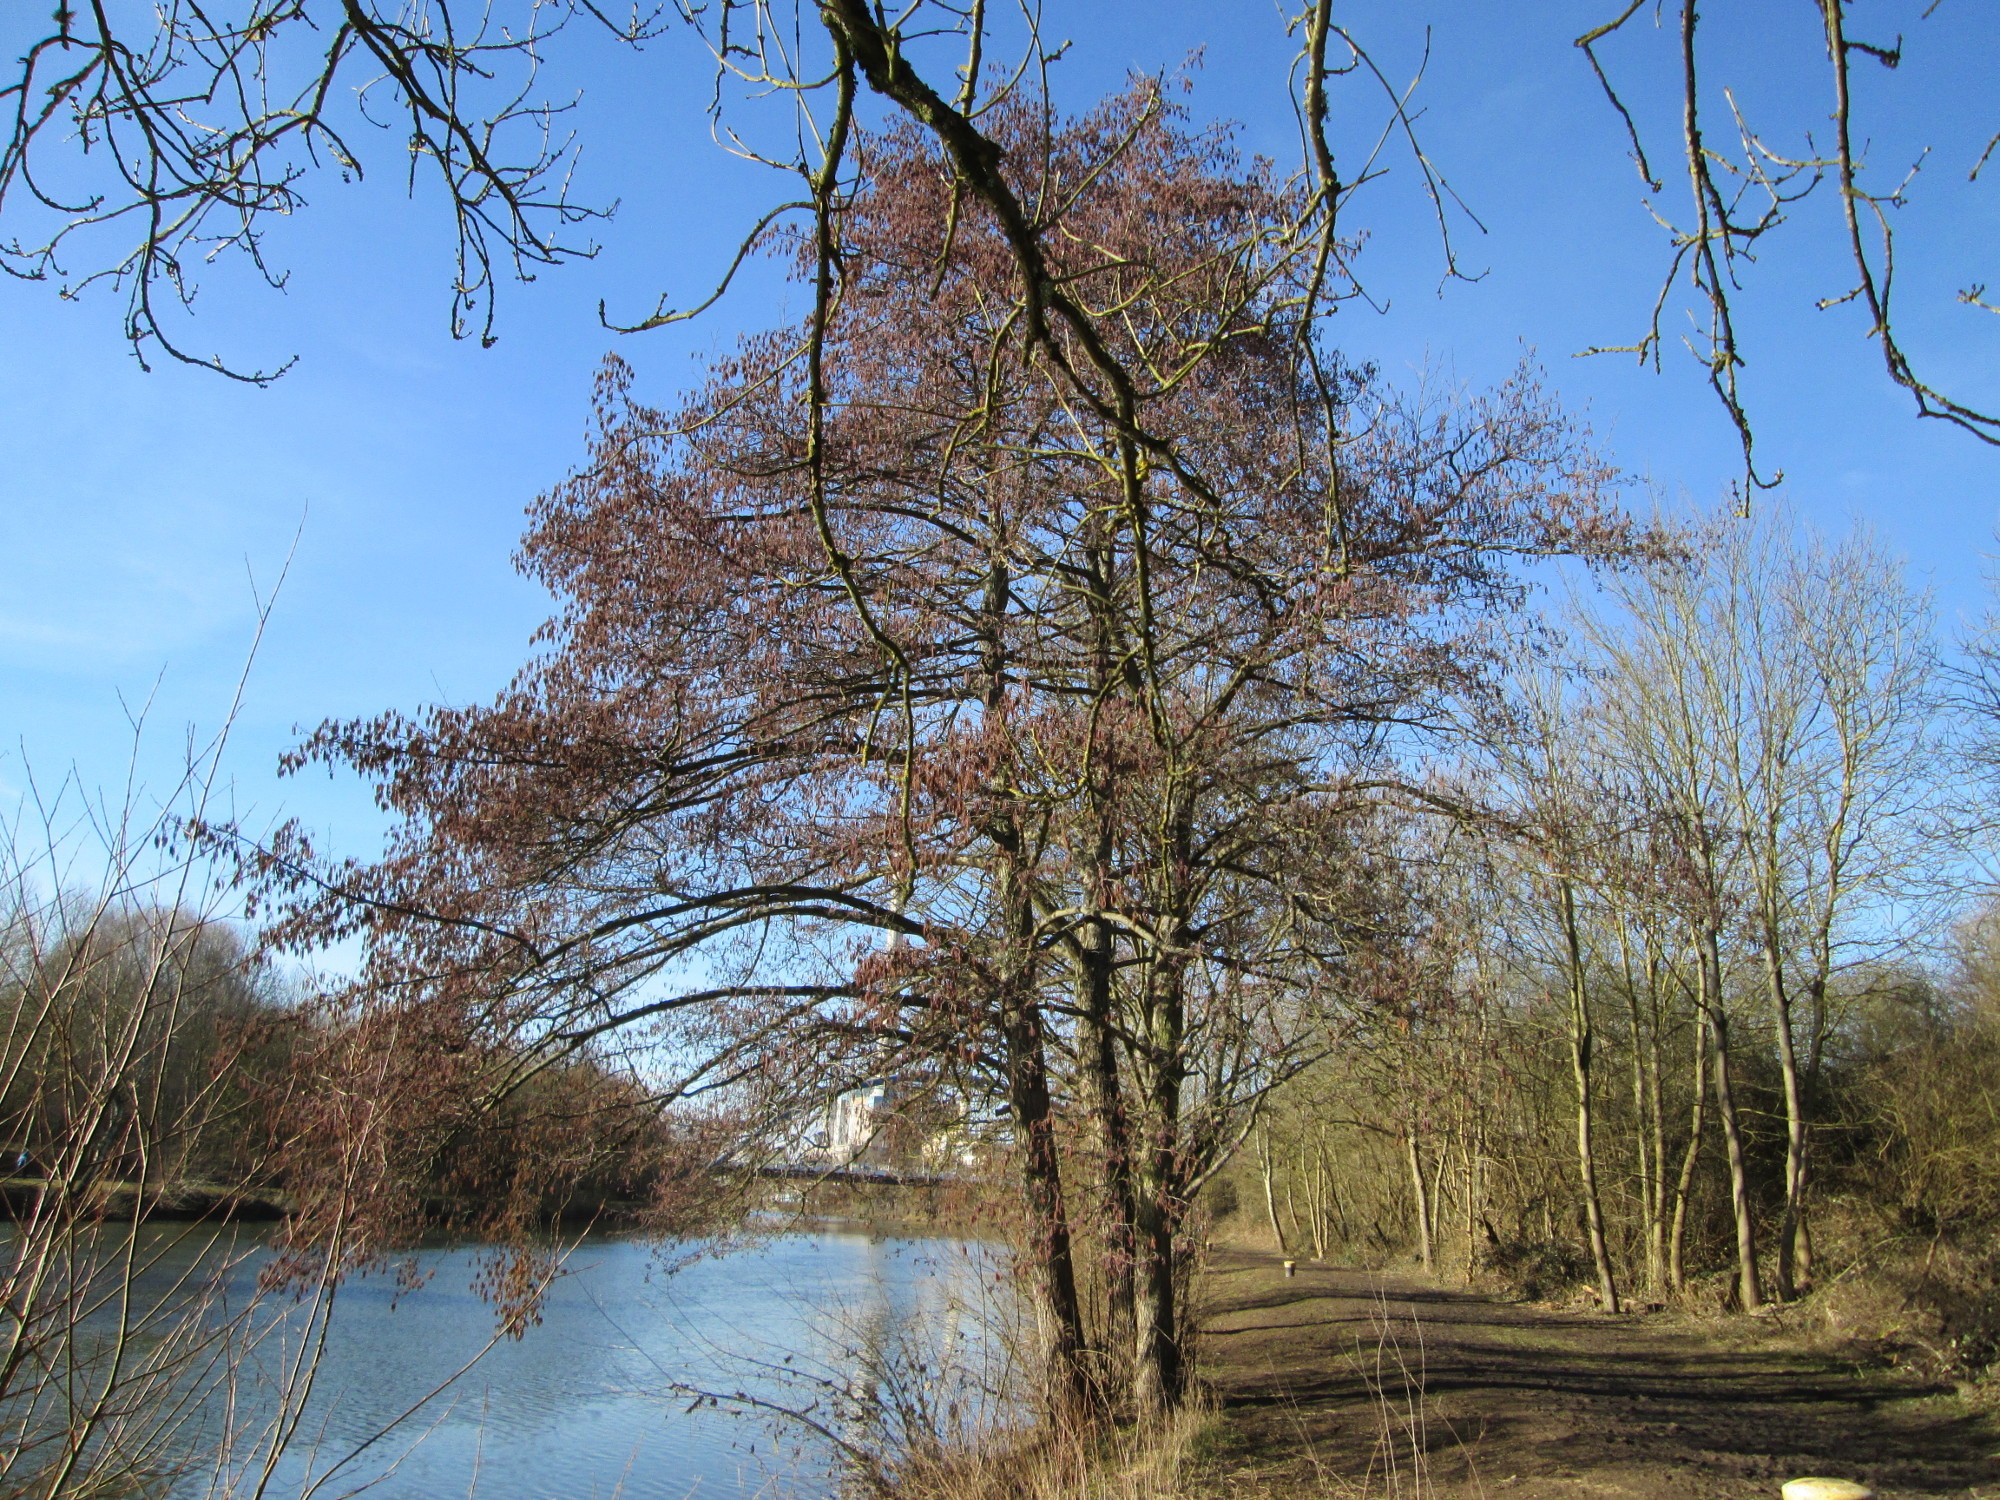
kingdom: Plantae
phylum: Tracheophyta
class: Magnoliopsida
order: Fagales
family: Betulaceae
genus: Alnus
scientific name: Alnus glutinosa
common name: Black alder
